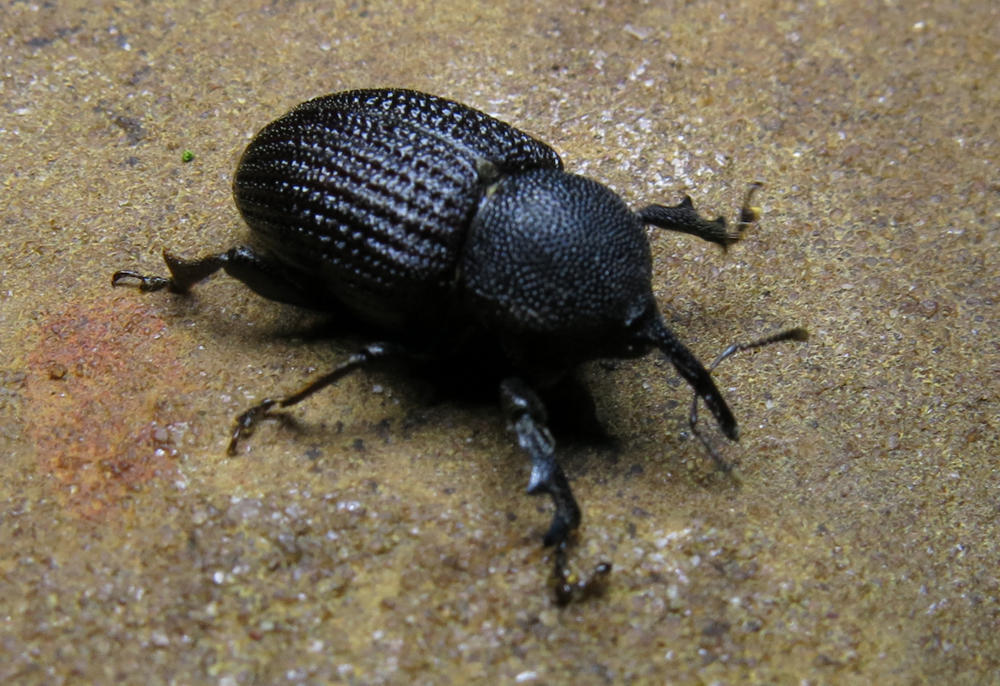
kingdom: Animalia
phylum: Arthropoda
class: Insecta
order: Coleoptera
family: Curculionidae
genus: Sclerocardius
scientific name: Sclerocardius africanus
